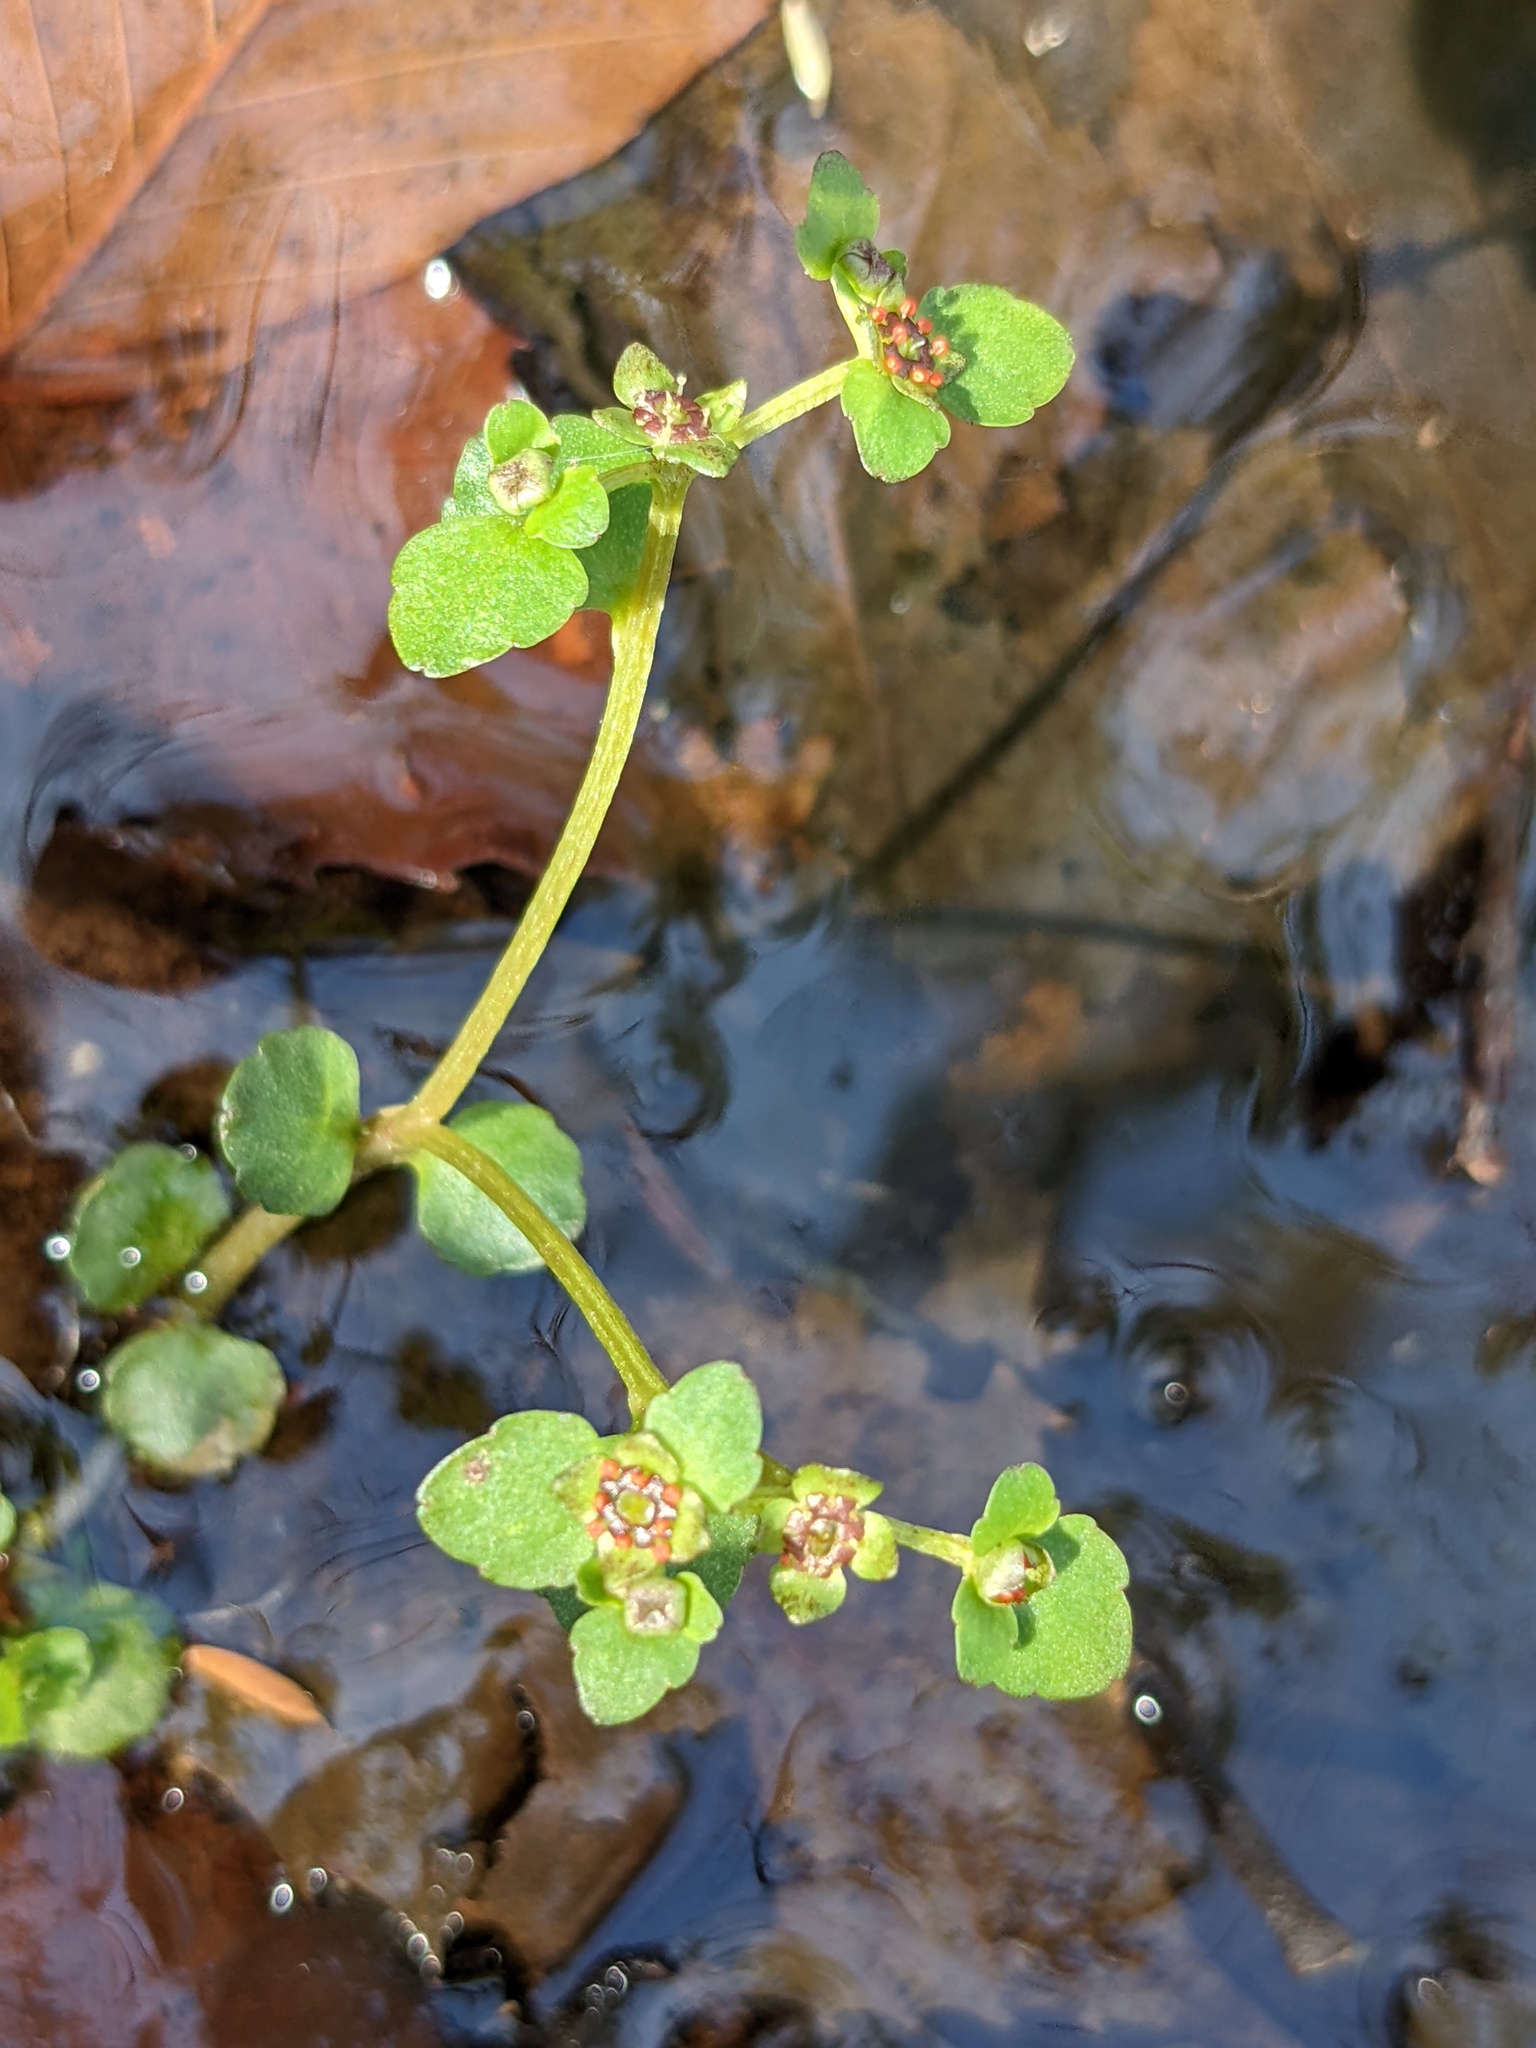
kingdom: Plantae
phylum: Tracheophyta
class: Magnoliopsida
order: Saxifragales
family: Saxifragaceae
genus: Chrysosplenium
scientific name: Chrysosplenium americanum
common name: American golden-saxifrage
